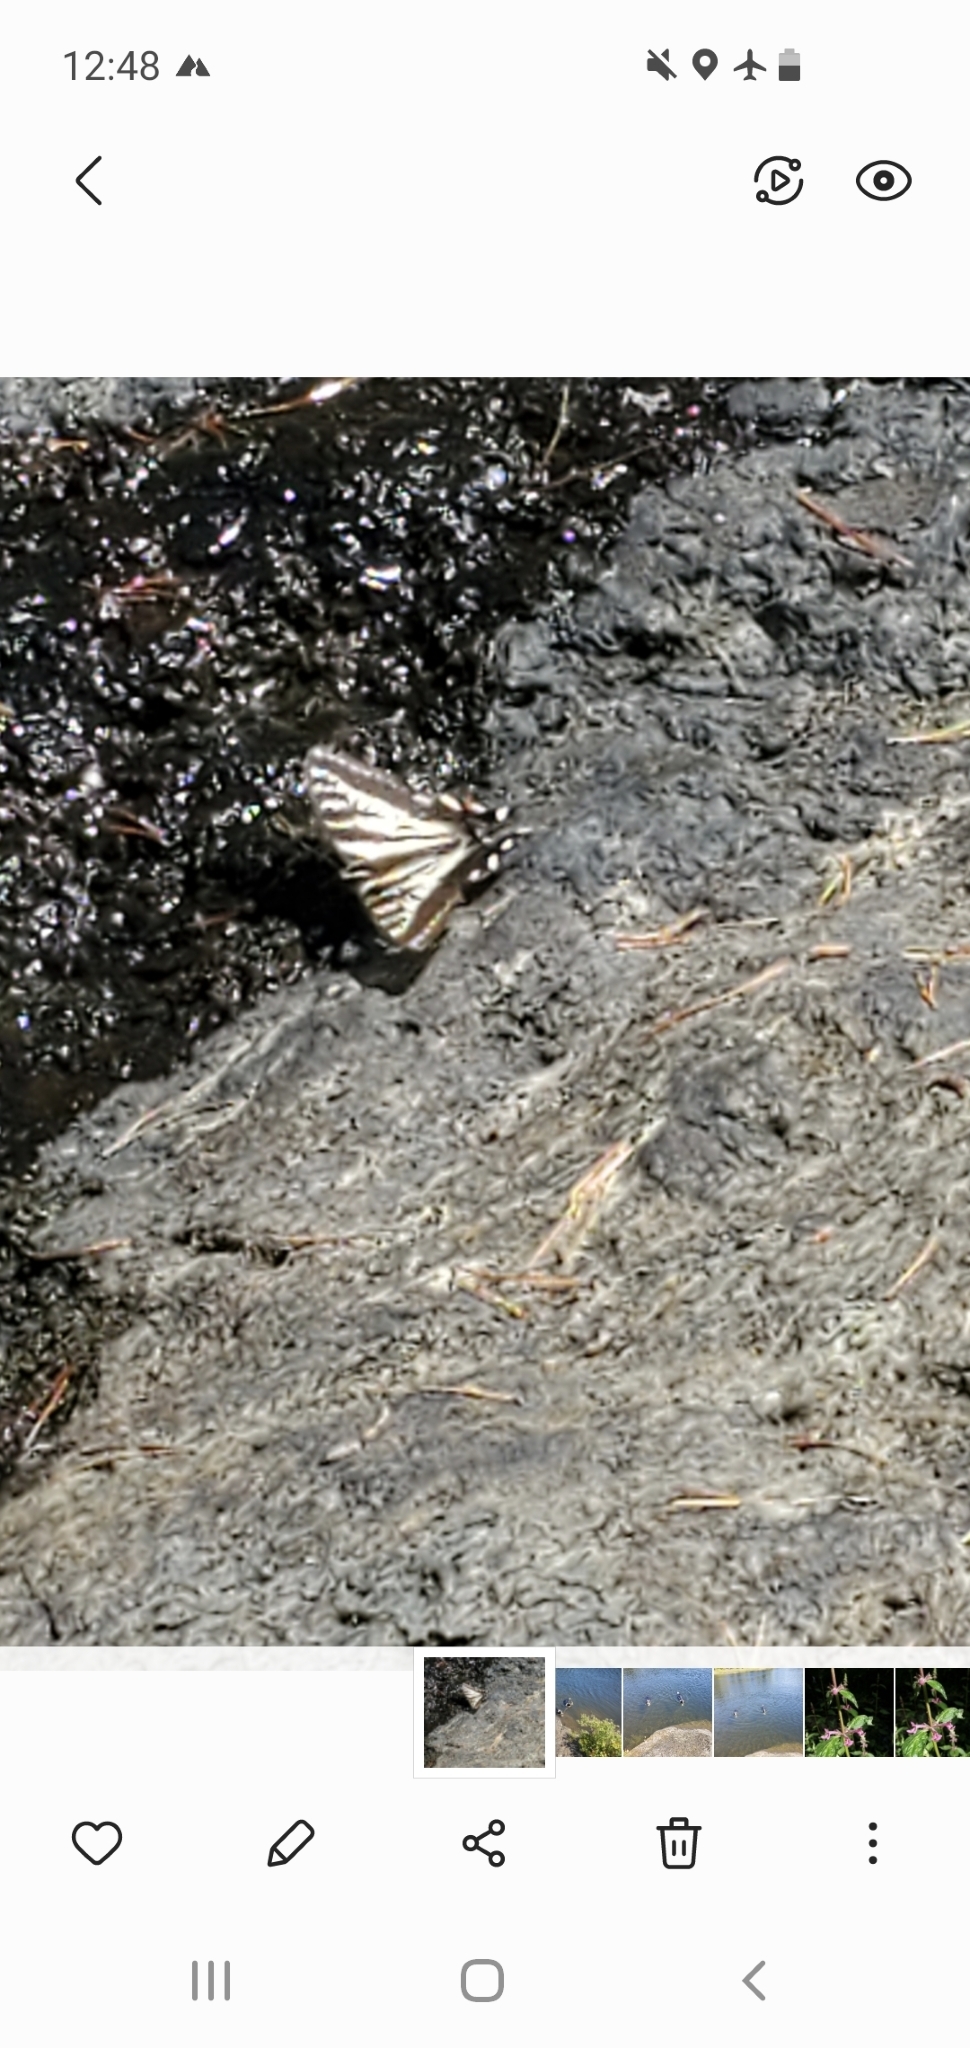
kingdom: Animalia
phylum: Arthropoda
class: Insecta
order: Lepidoptera
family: Papilionidae
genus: Papilio
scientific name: Papilio eurymedon
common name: Pale tiger swallowtail
